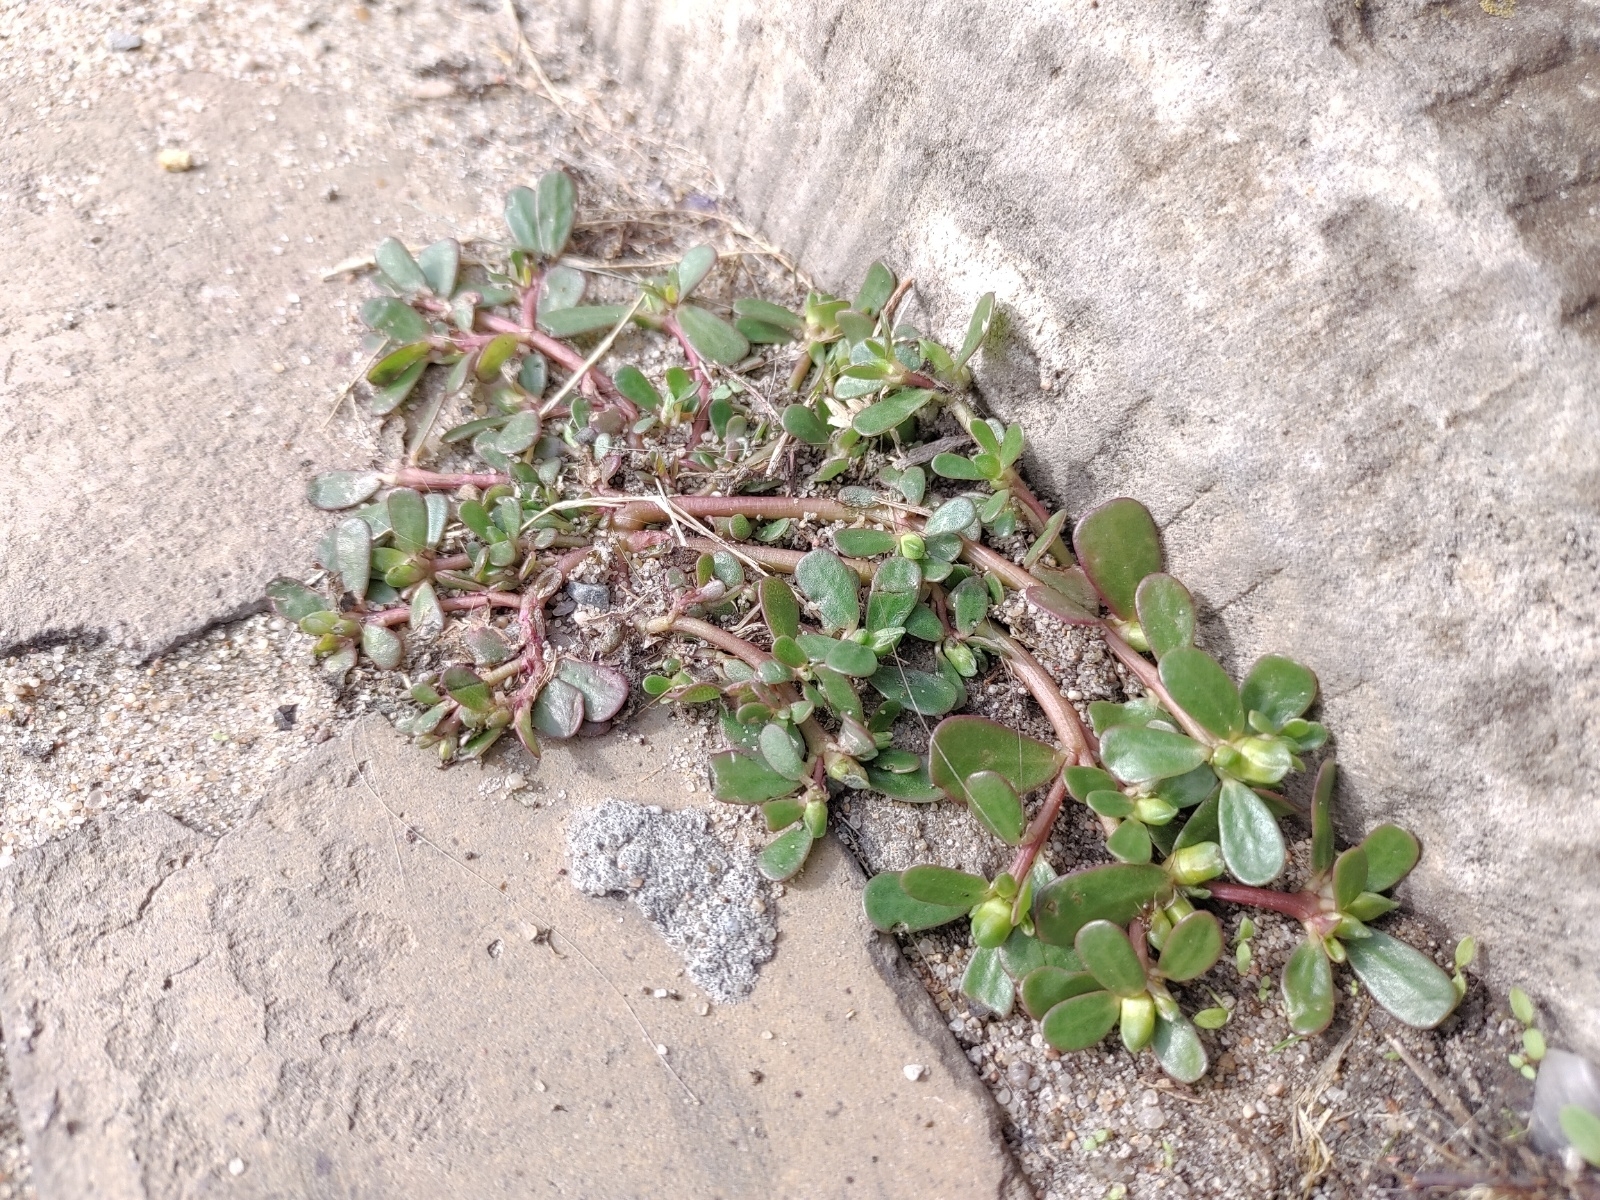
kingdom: Plantae
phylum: Tracheophyta
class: Magnoliopsida
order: Caryophyllales
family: Portulacaceae
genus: Portulaca
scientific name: Portulaca oleracea
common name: Common purslane
